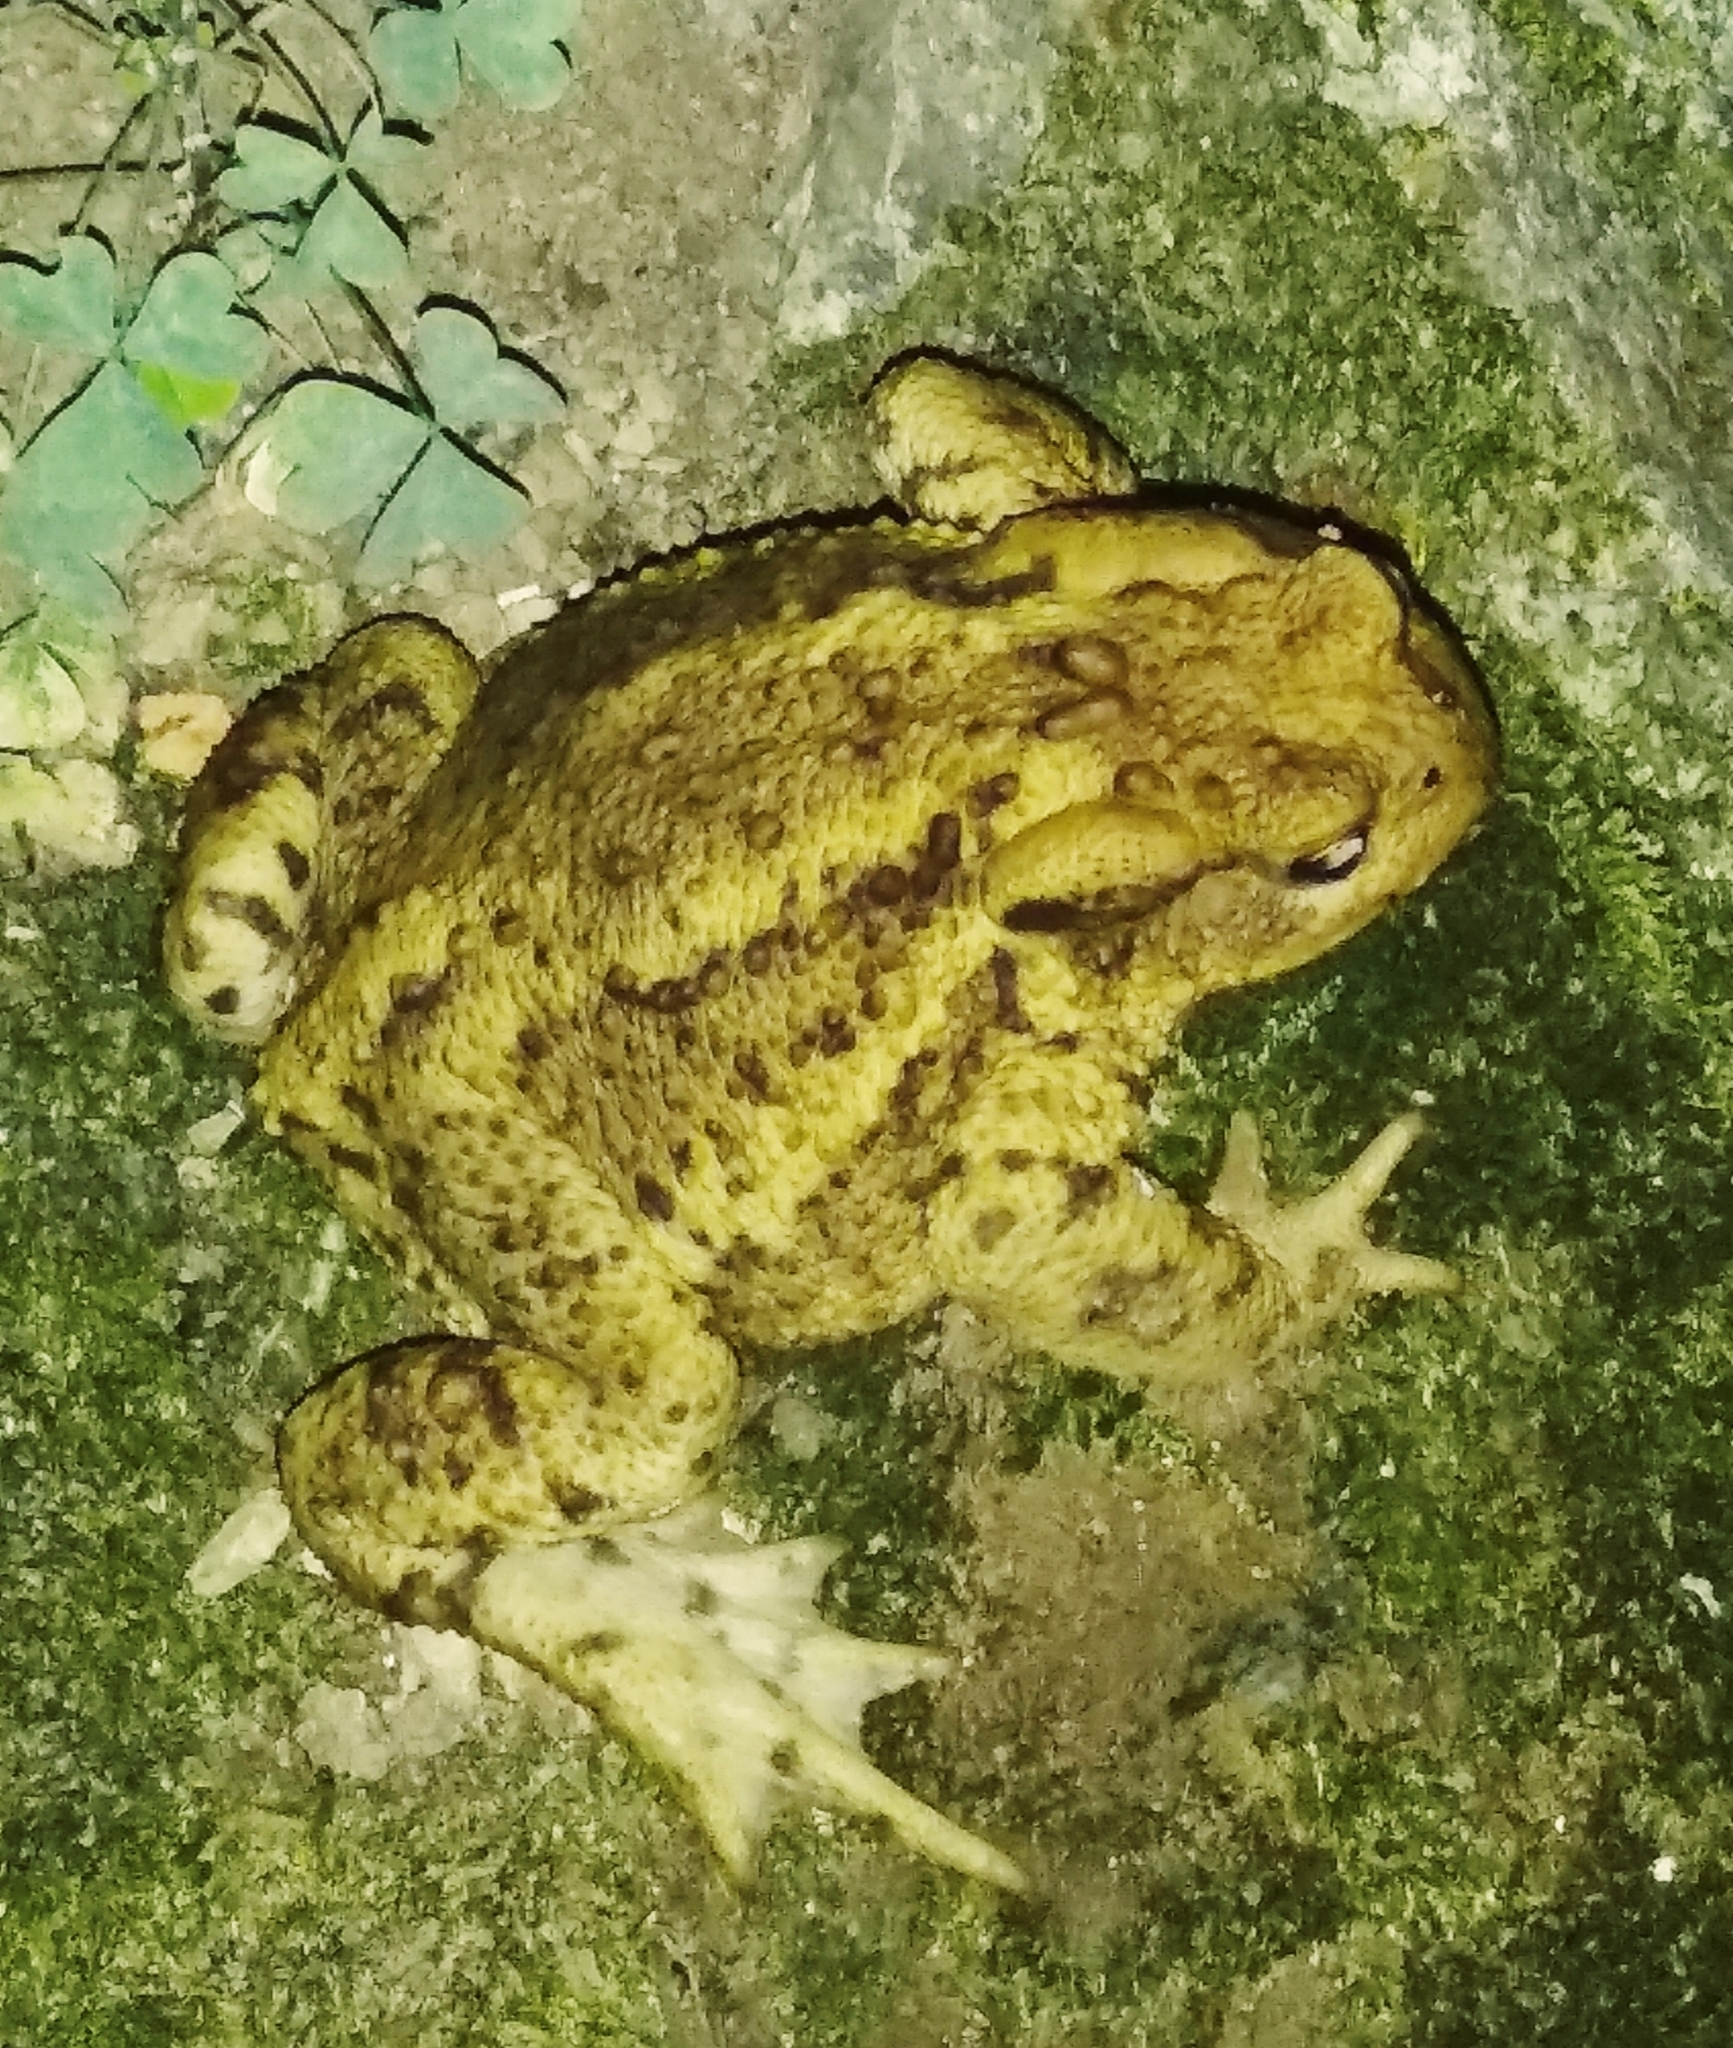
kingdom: Animalia
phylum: Chordata
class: Amphibia
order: Anura
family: Bufonidae
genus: Bufo
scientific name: Bufo bufo
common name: Common toad
